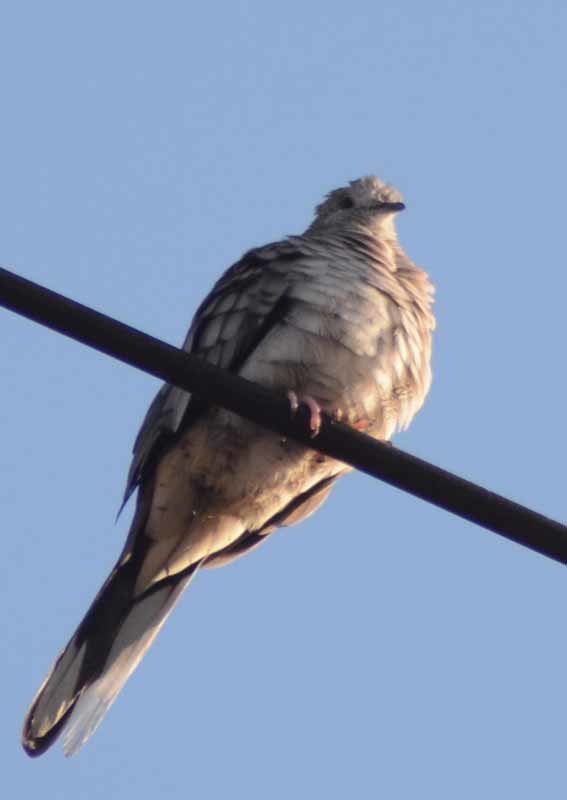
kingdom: Animalia
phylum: Chordata
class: Aves
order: Columbiformes
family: Columbidae
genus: Columbina
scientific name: Columbina inca
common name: Inca dove
